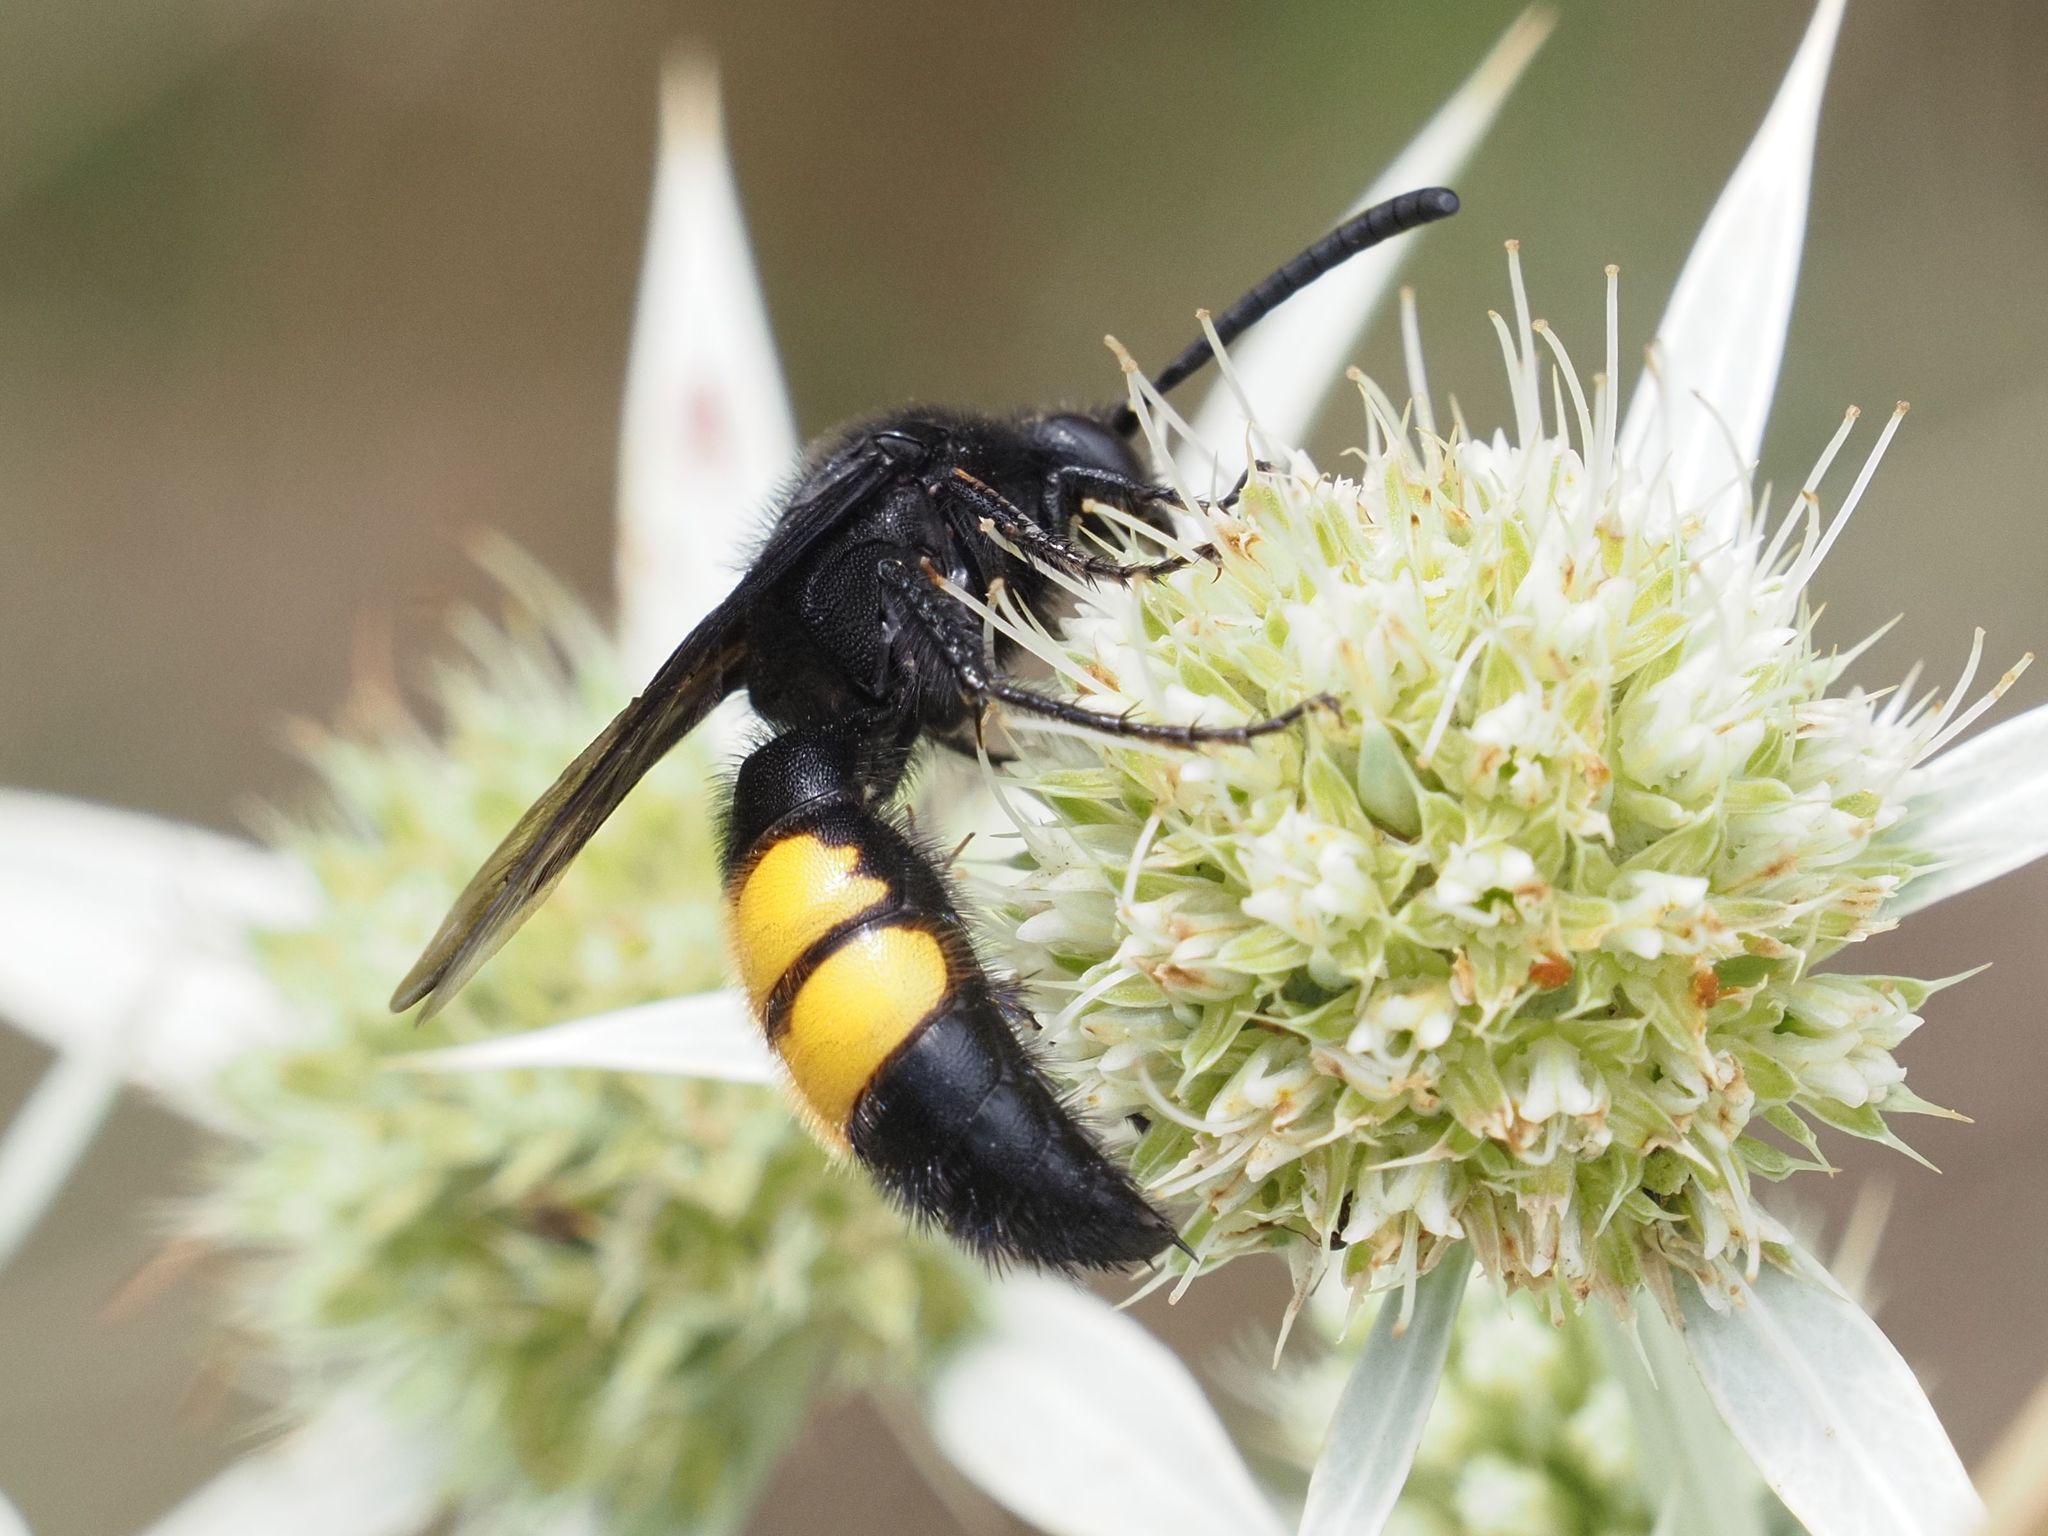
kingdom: Animalia
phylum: Arthropoda
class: Insecta
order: Hymenoptera
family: Scoliidae
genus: Scolia
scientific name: Scolia hirta
